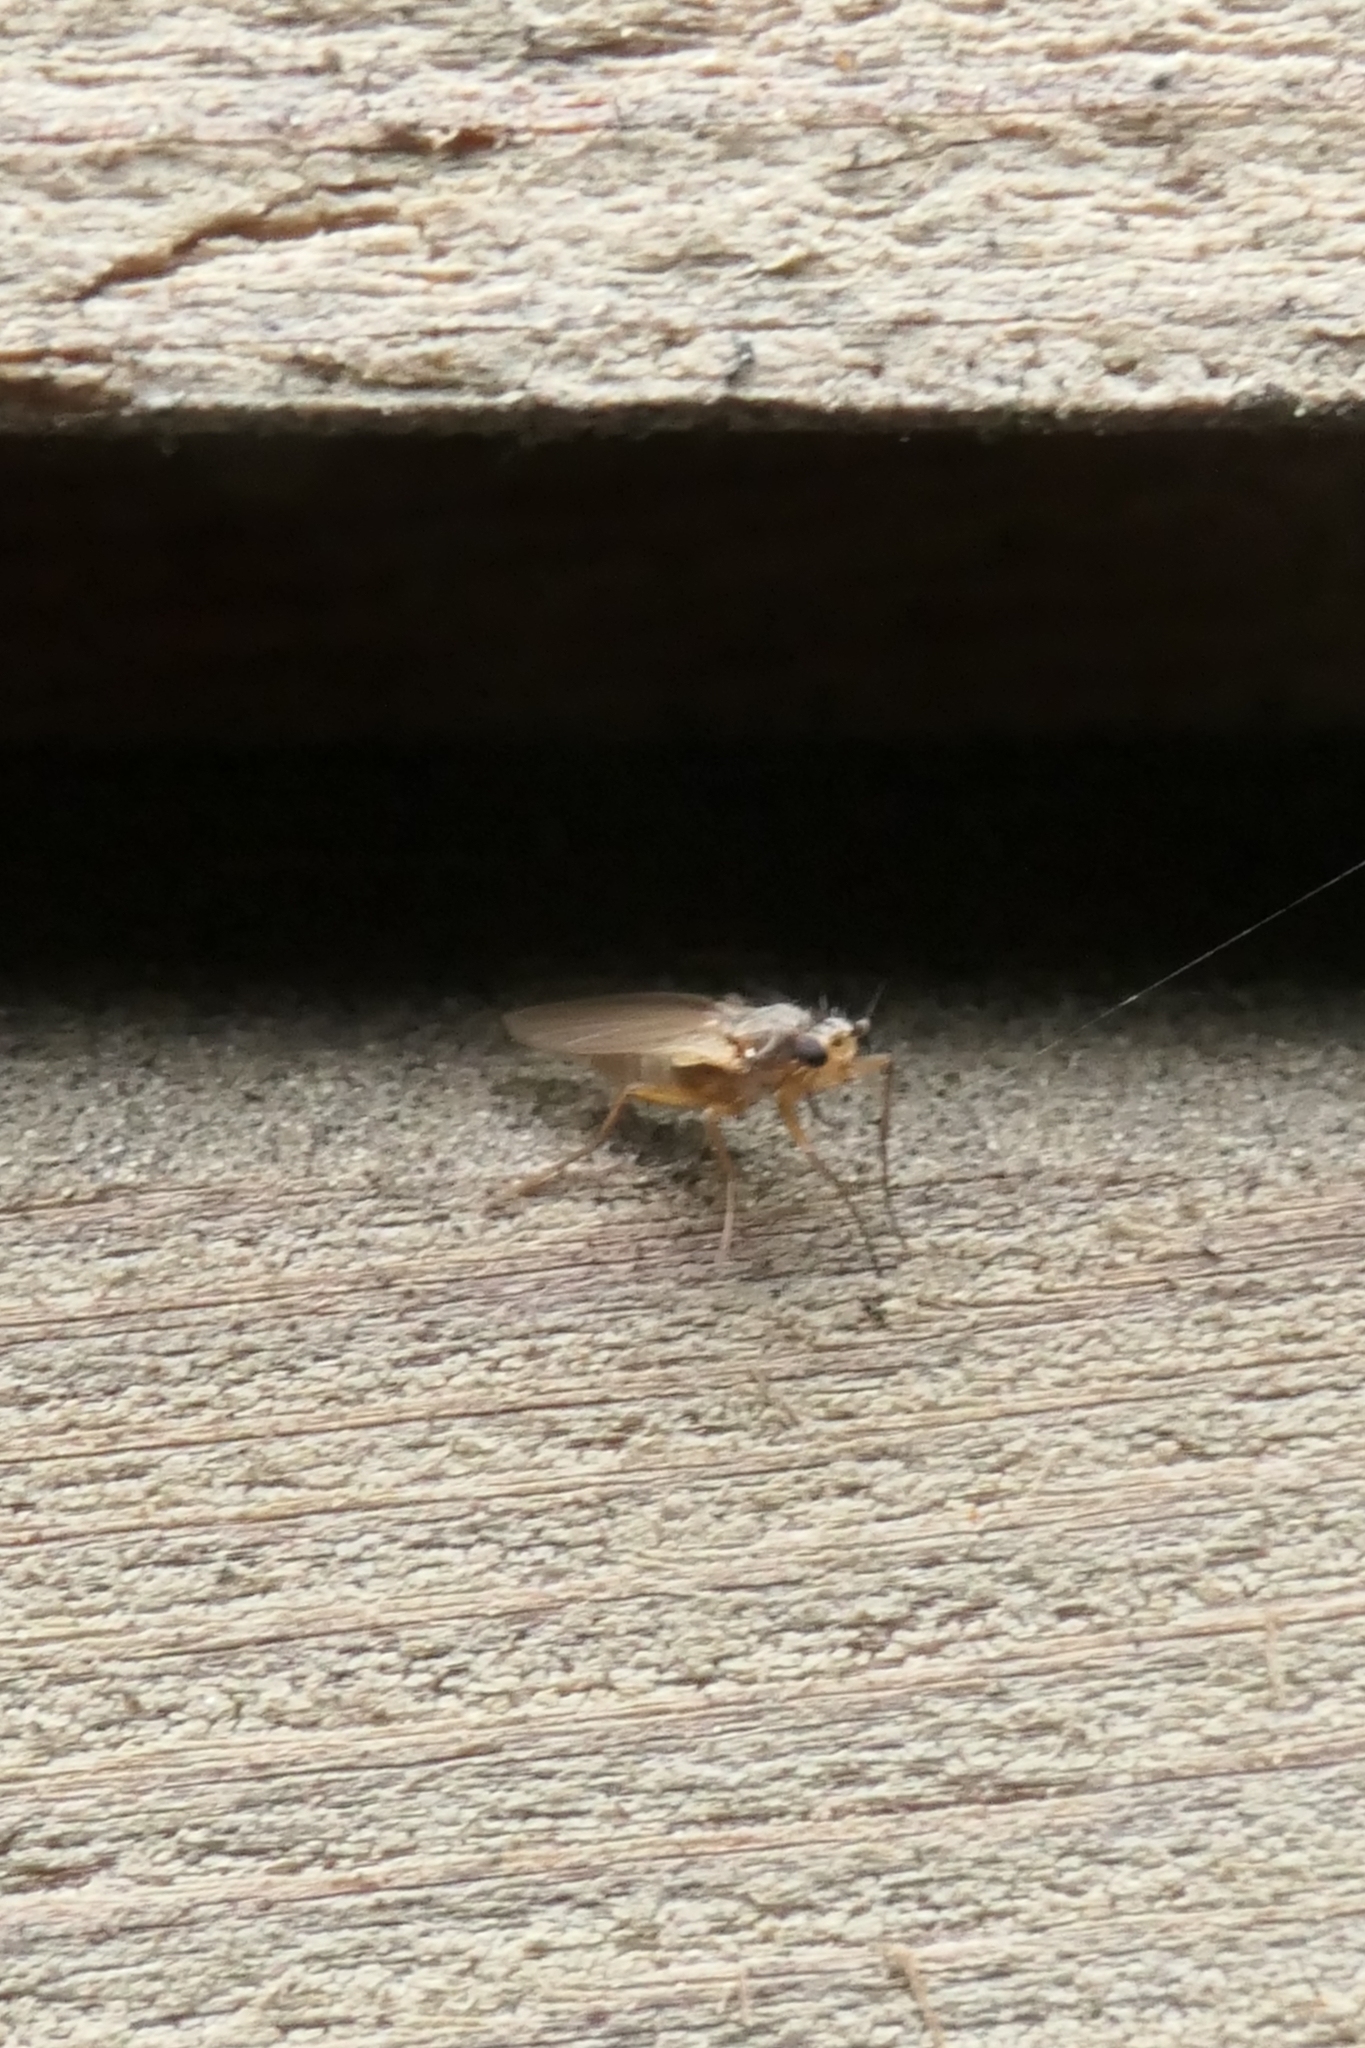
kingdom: Animalia
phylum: Arthropoda
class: Insecta
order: Diptera
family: Lonchopteridae
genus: Lonchoptera
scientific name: Lonchoptera bifurcata
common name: Spear-winged fly
